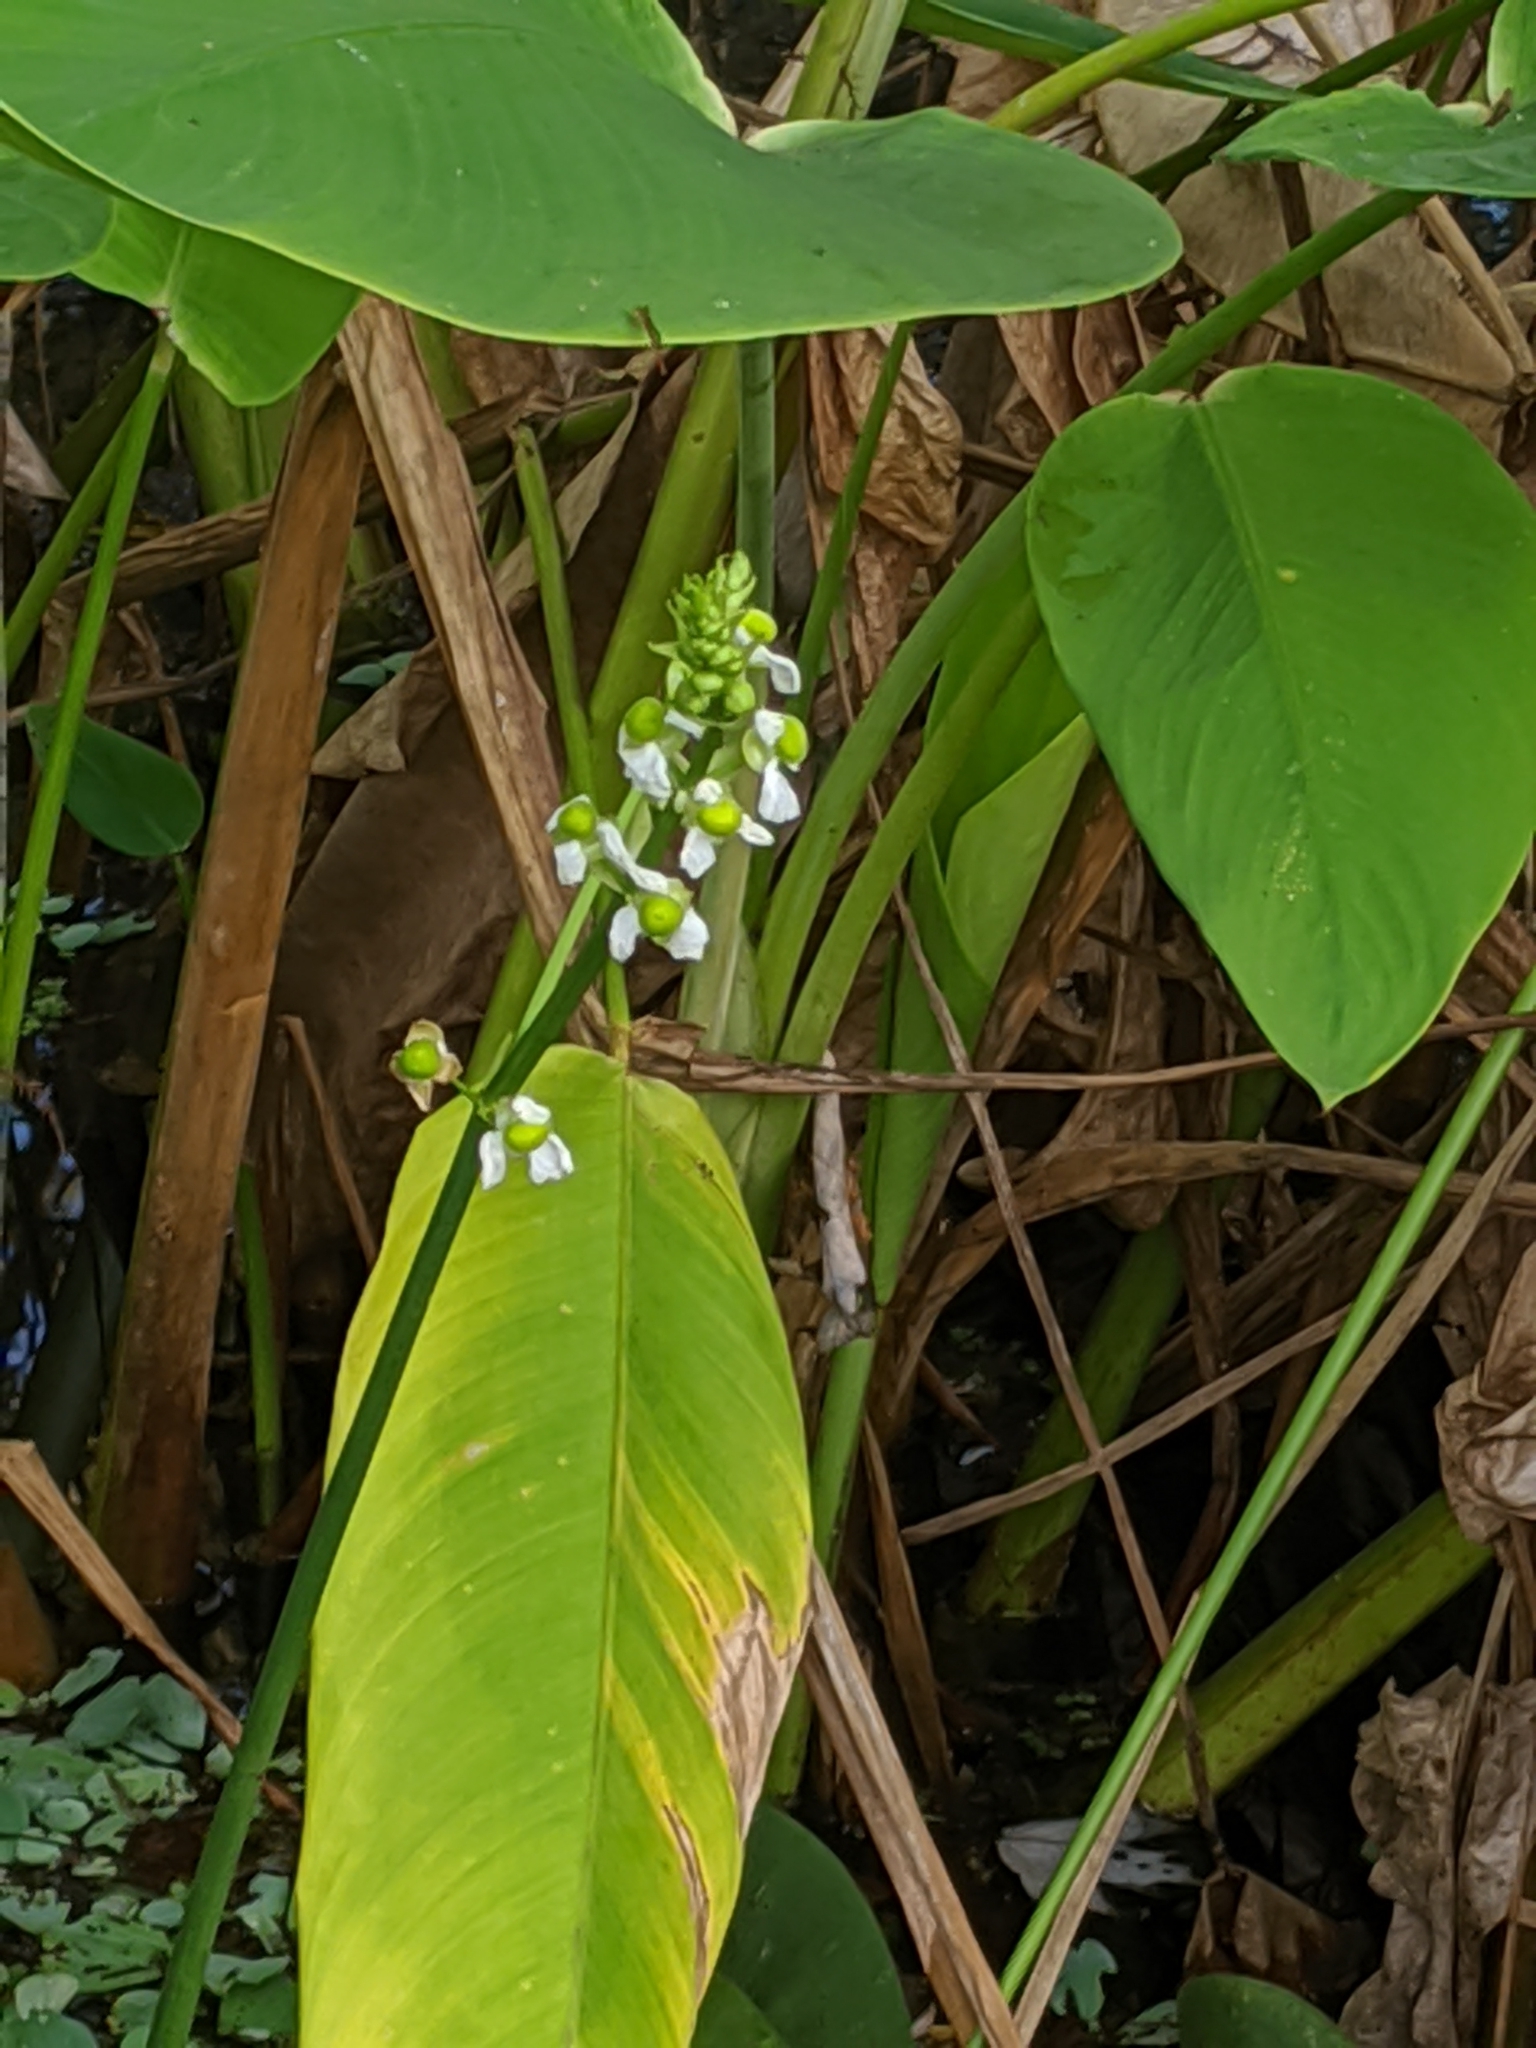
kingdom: Plantae
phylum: Tracheophyta
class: Liliopsida
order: Alismatales
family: Alismataceae
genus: Sagittaria
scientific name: Sagittaria lancifolia
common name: Lance-leaf arrowhead
